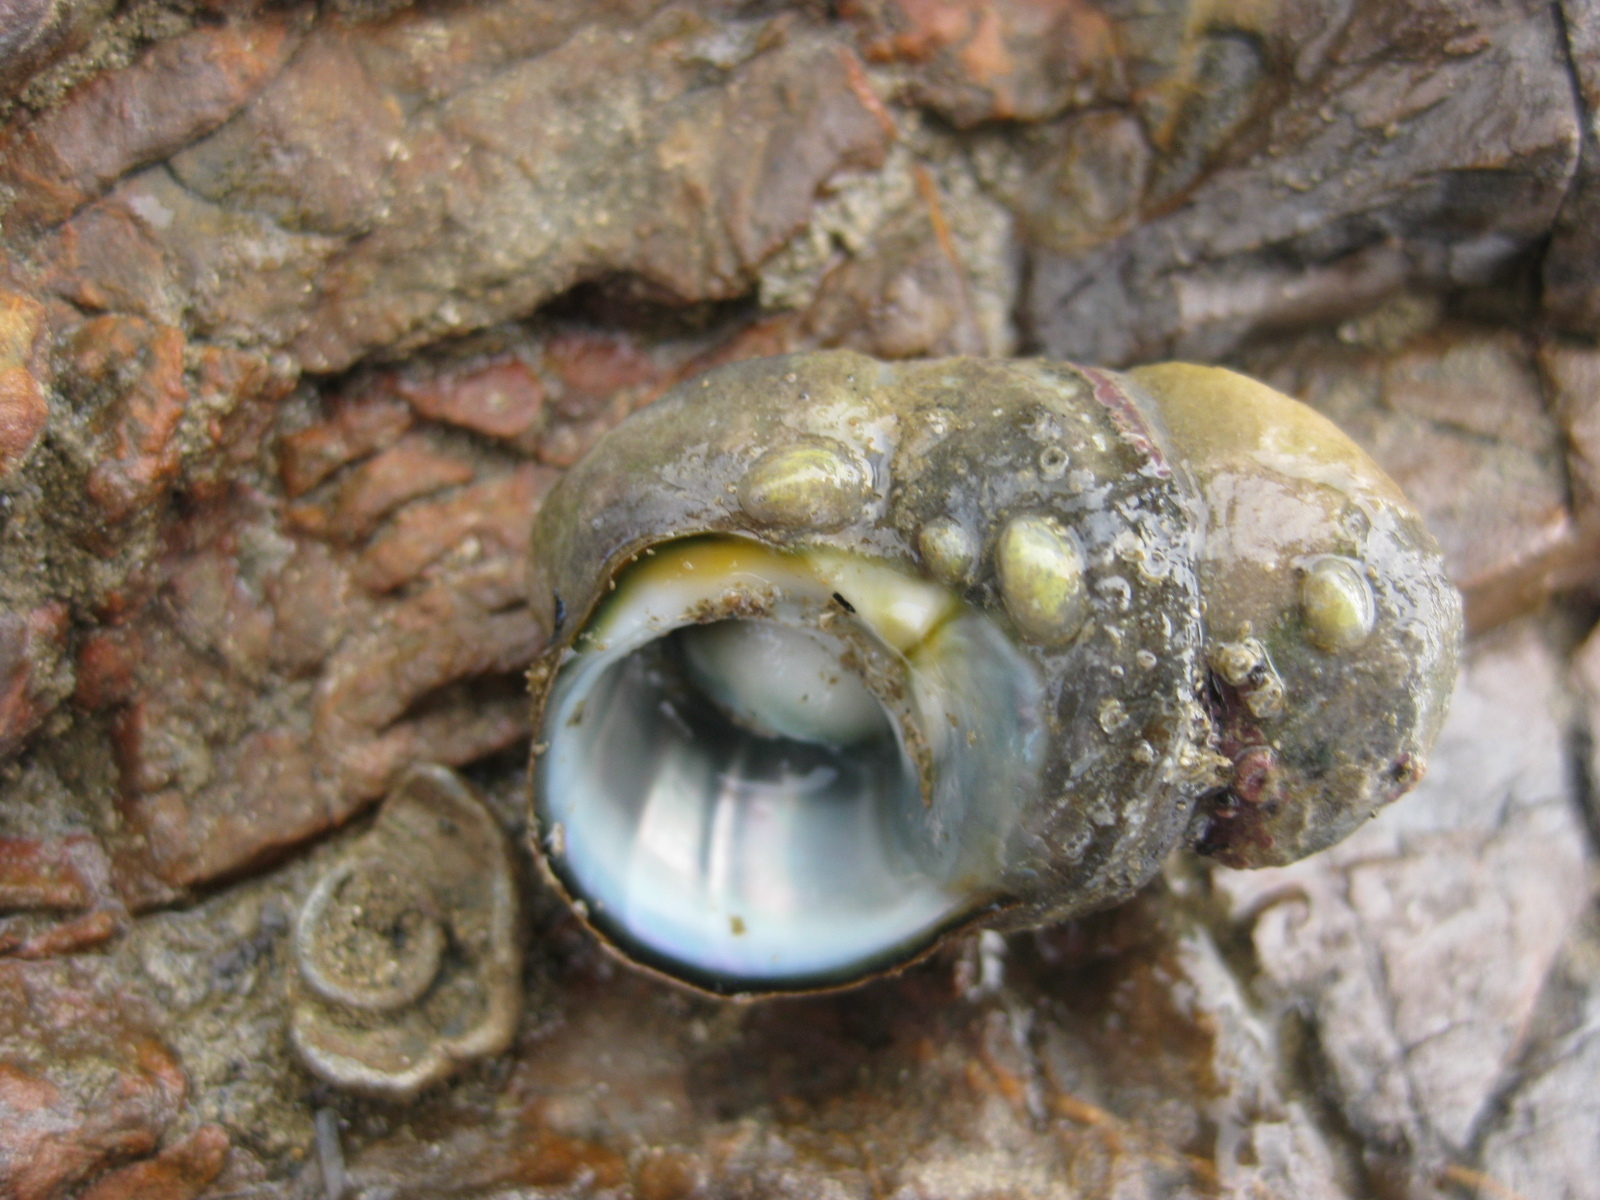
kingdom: Animalia
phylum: Mollusca
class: Gastropoda
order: Littorinimorpha
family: Calyptraeidae
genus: Maoricrypta
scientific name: Maoricrypta monoxyla
